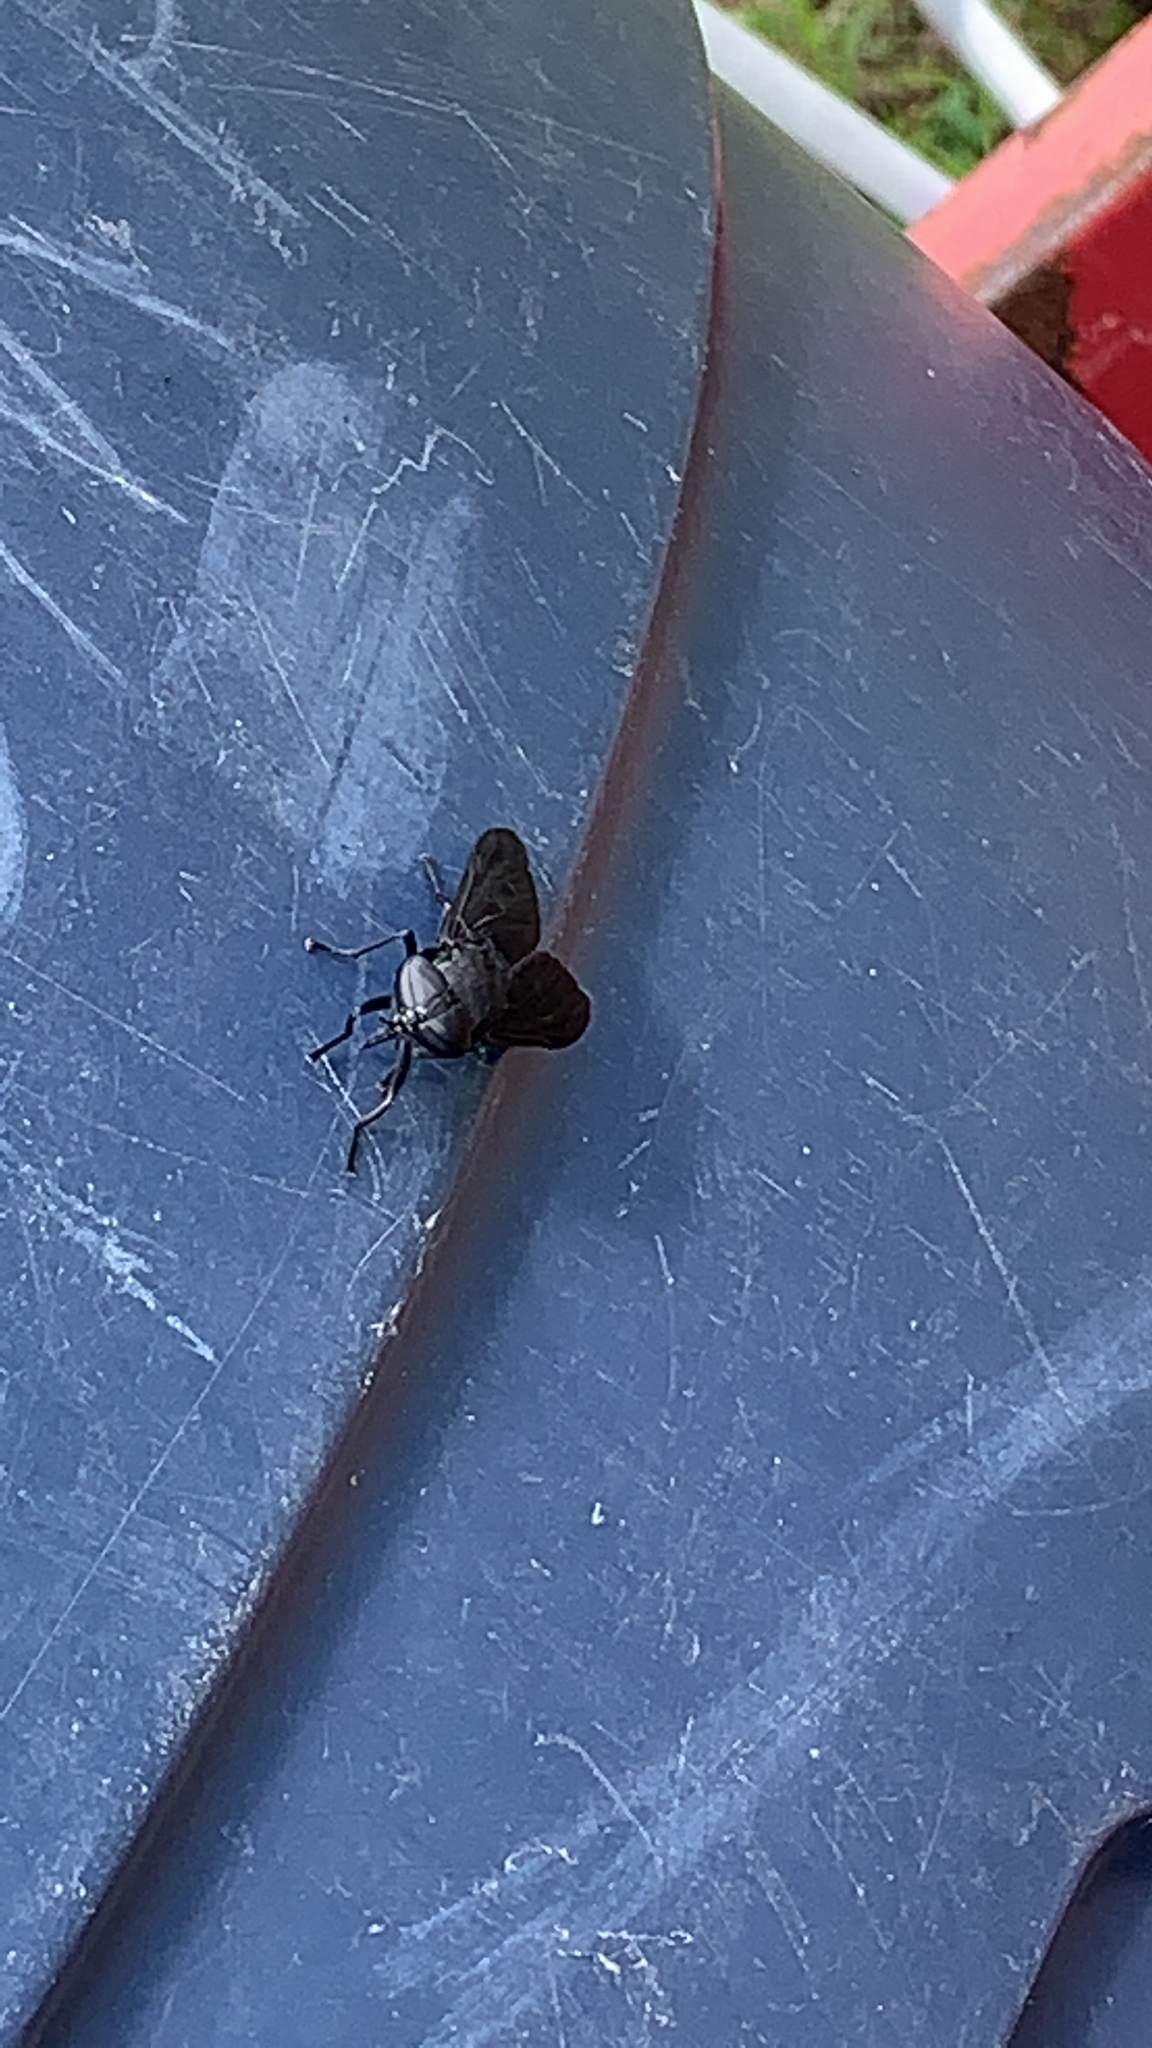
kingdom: Animalia
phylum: Arthropoda
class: Insecta
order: Diptera
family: Tabanidae
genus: Tabanus
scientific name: Tabanus atratus
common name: Black horse fly
